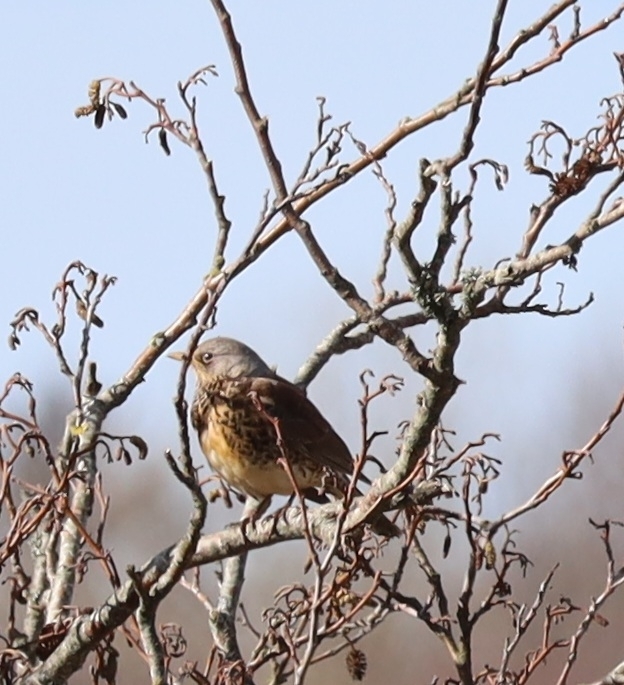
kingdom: Animalia
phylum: Chordata
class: Aves
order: Passeriformes
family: Turdidae
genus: Turdus
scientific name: Turdus pilaris
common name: Fieldfare
